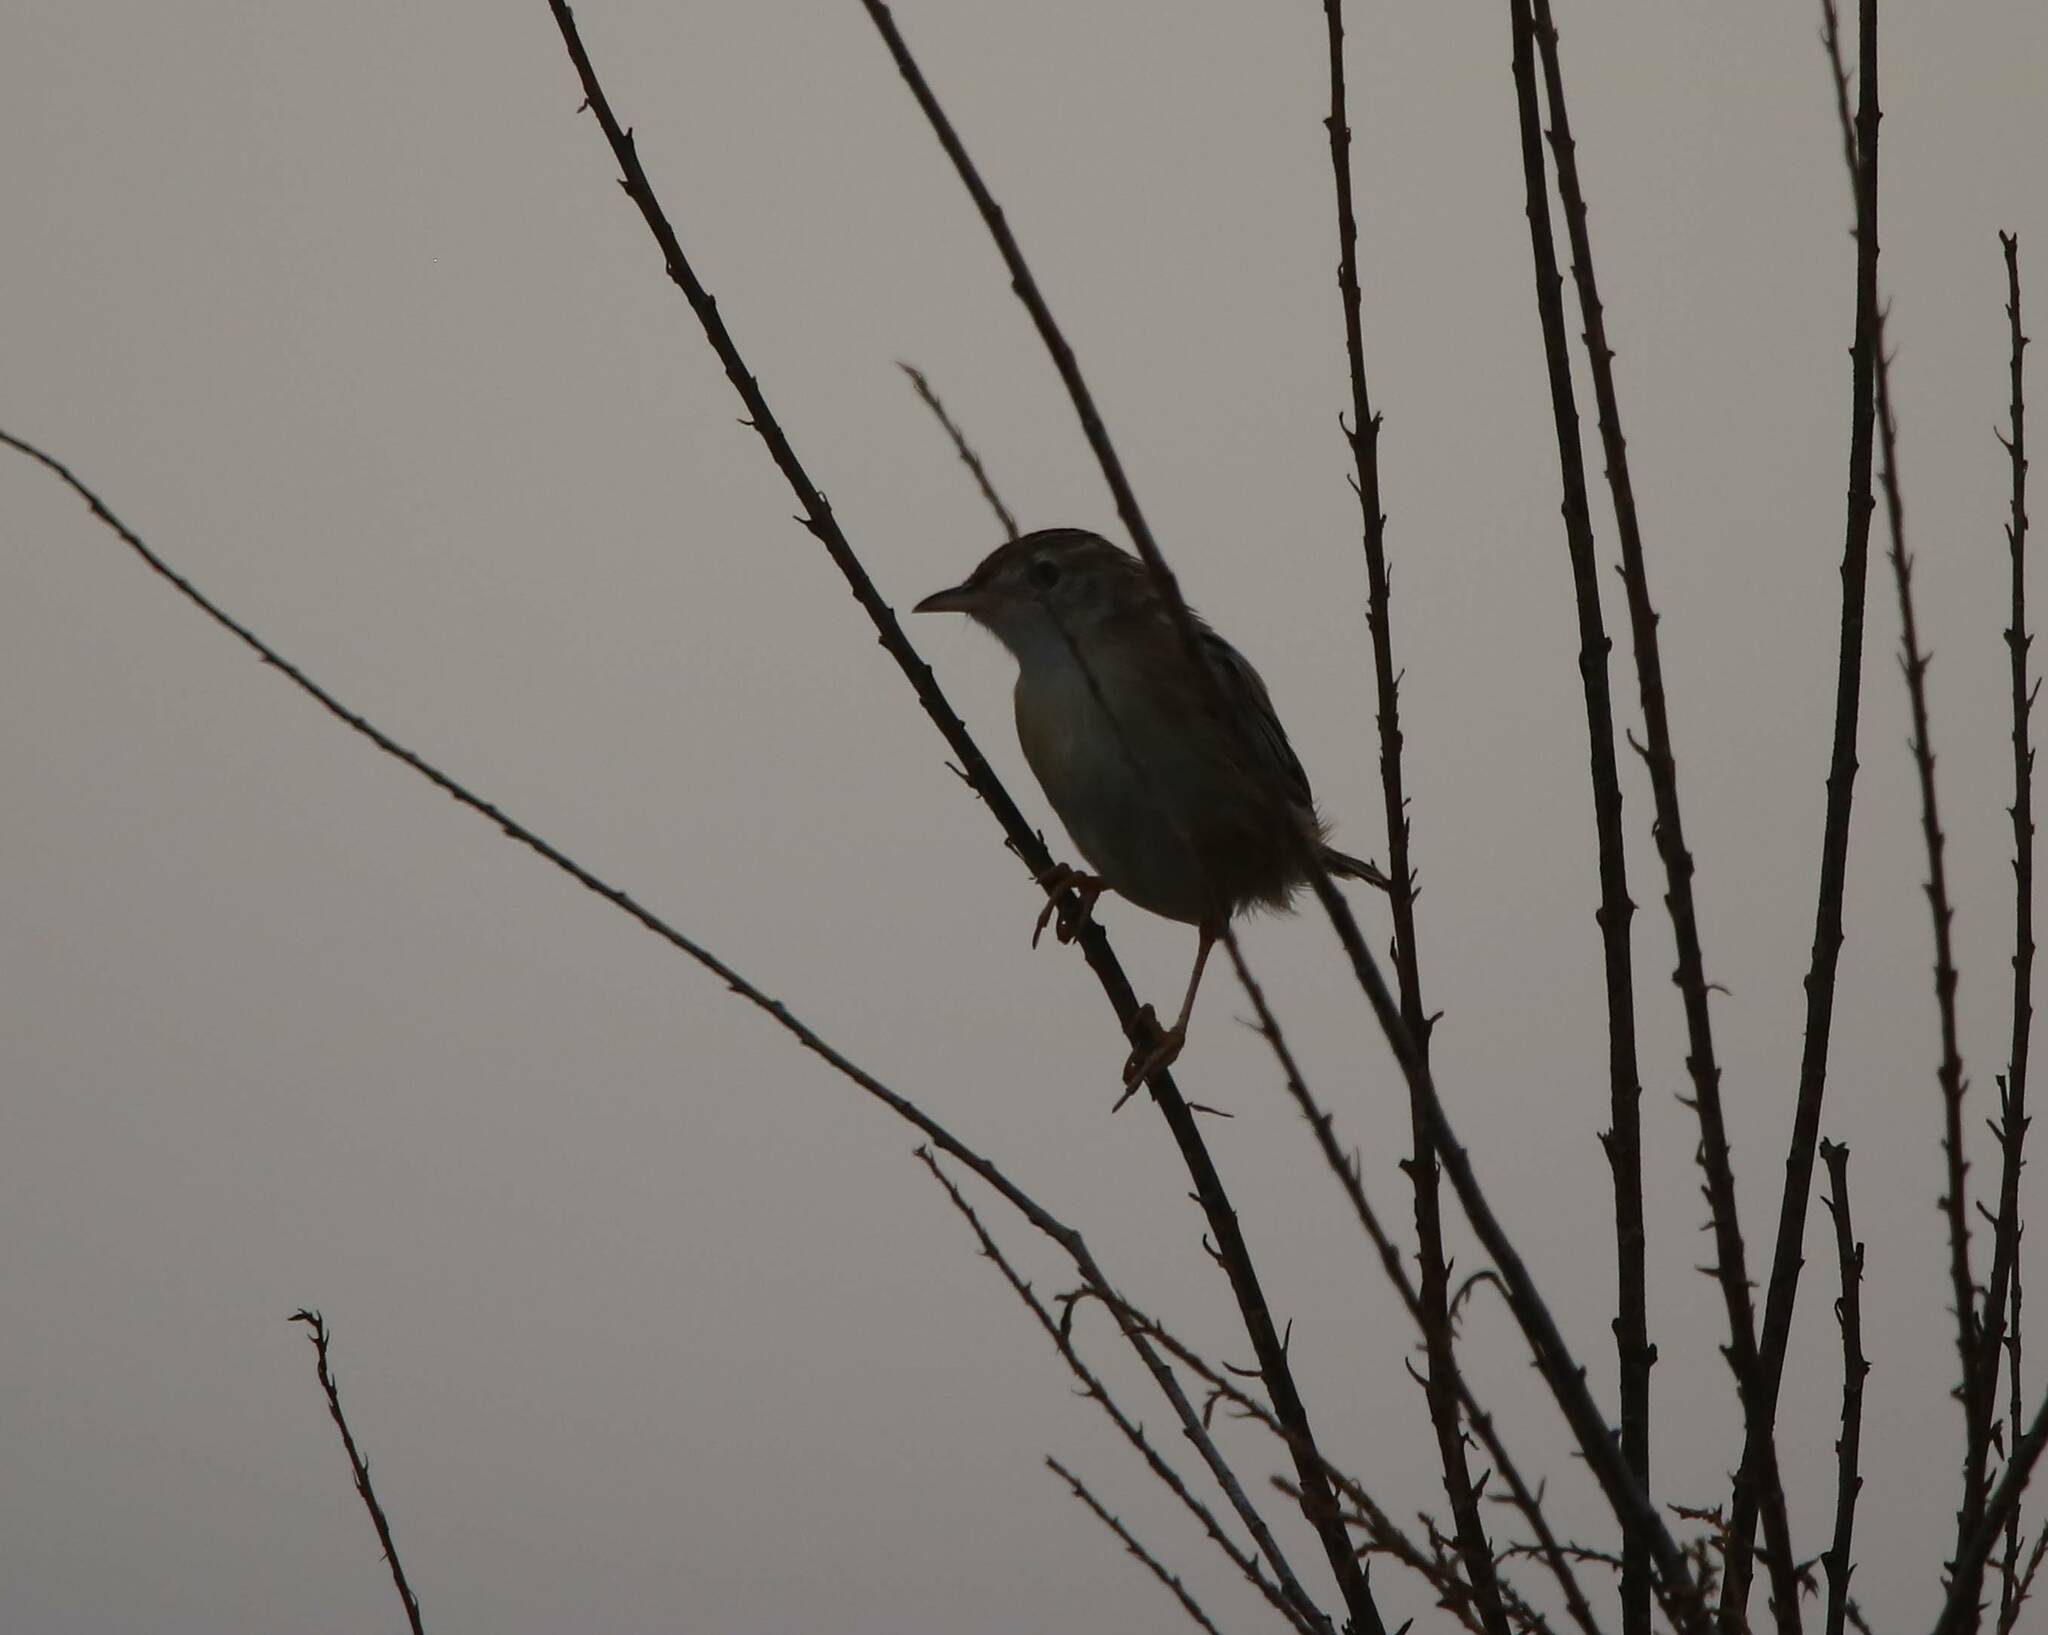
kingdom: Animalia
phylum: Chordata
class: Aves
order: Passeriformes
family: Cisticolidae
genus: Cisticola
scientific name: Cisticola juncidis
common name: Zitting cisticola
